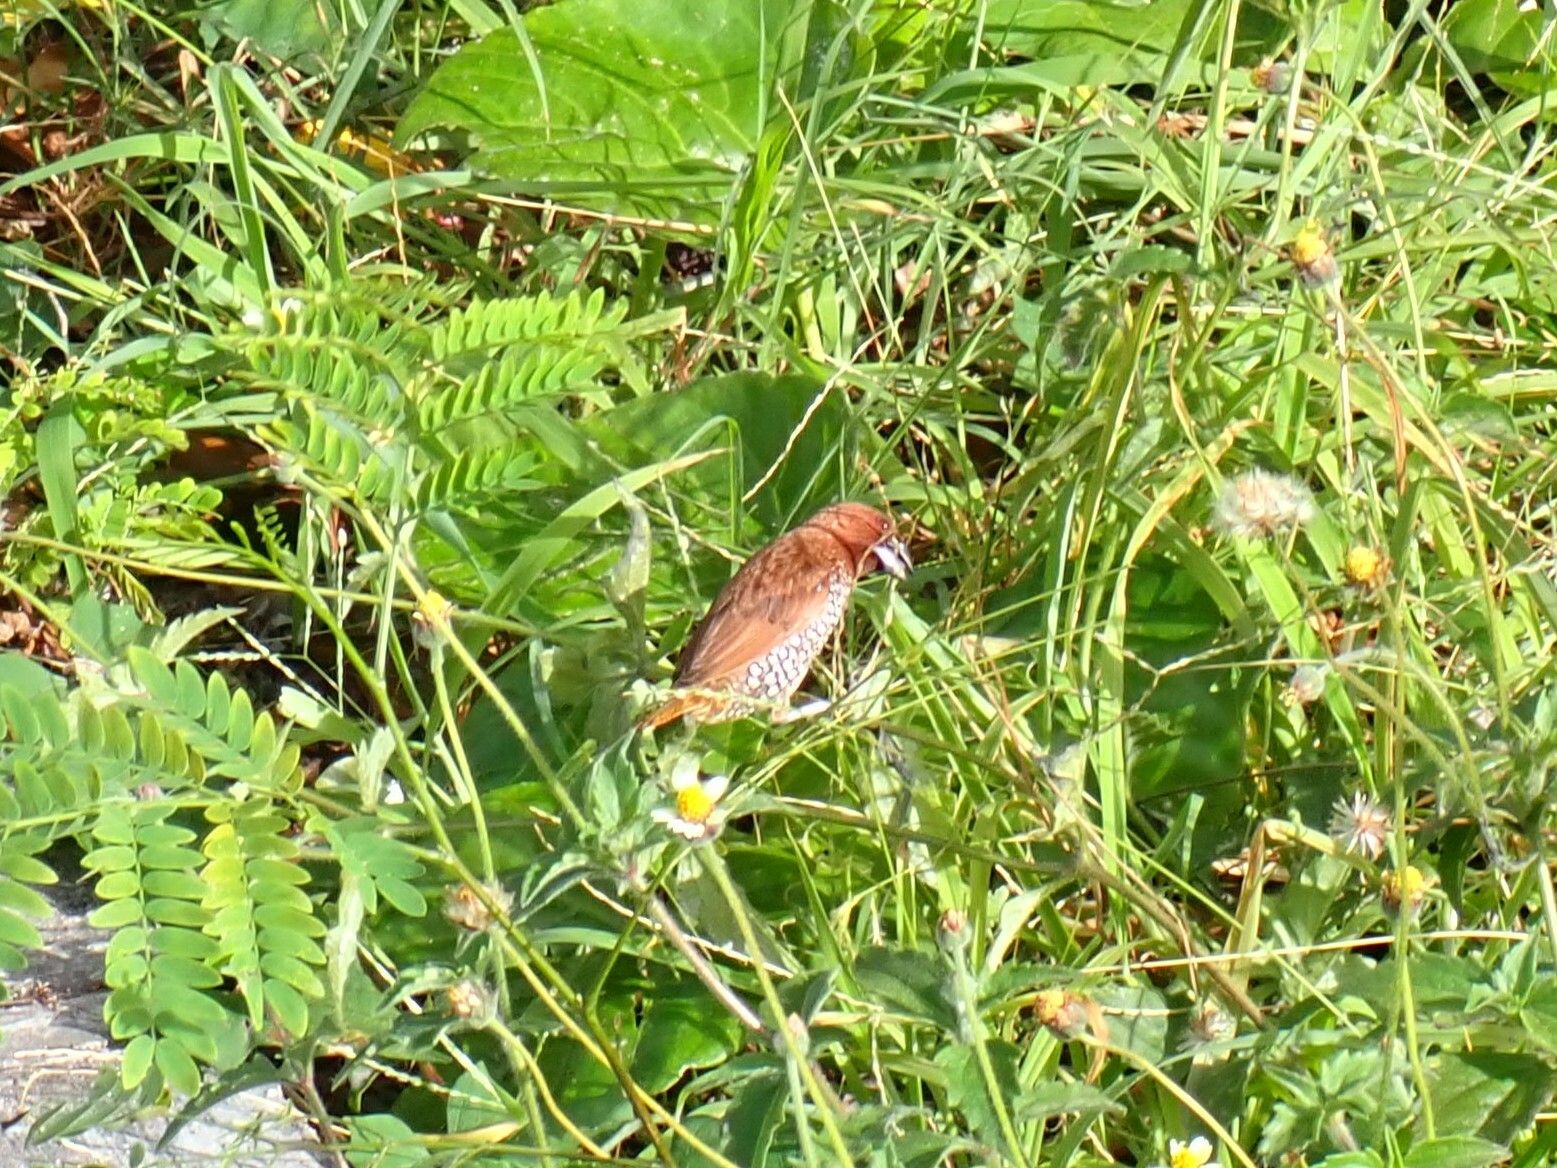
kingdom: Animalia
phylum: Chordata
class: Aves
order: Passeriformes
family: Estrildidae
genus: Lonchura
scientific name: Lonchura punctulata
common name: Scaly-breasted munia
